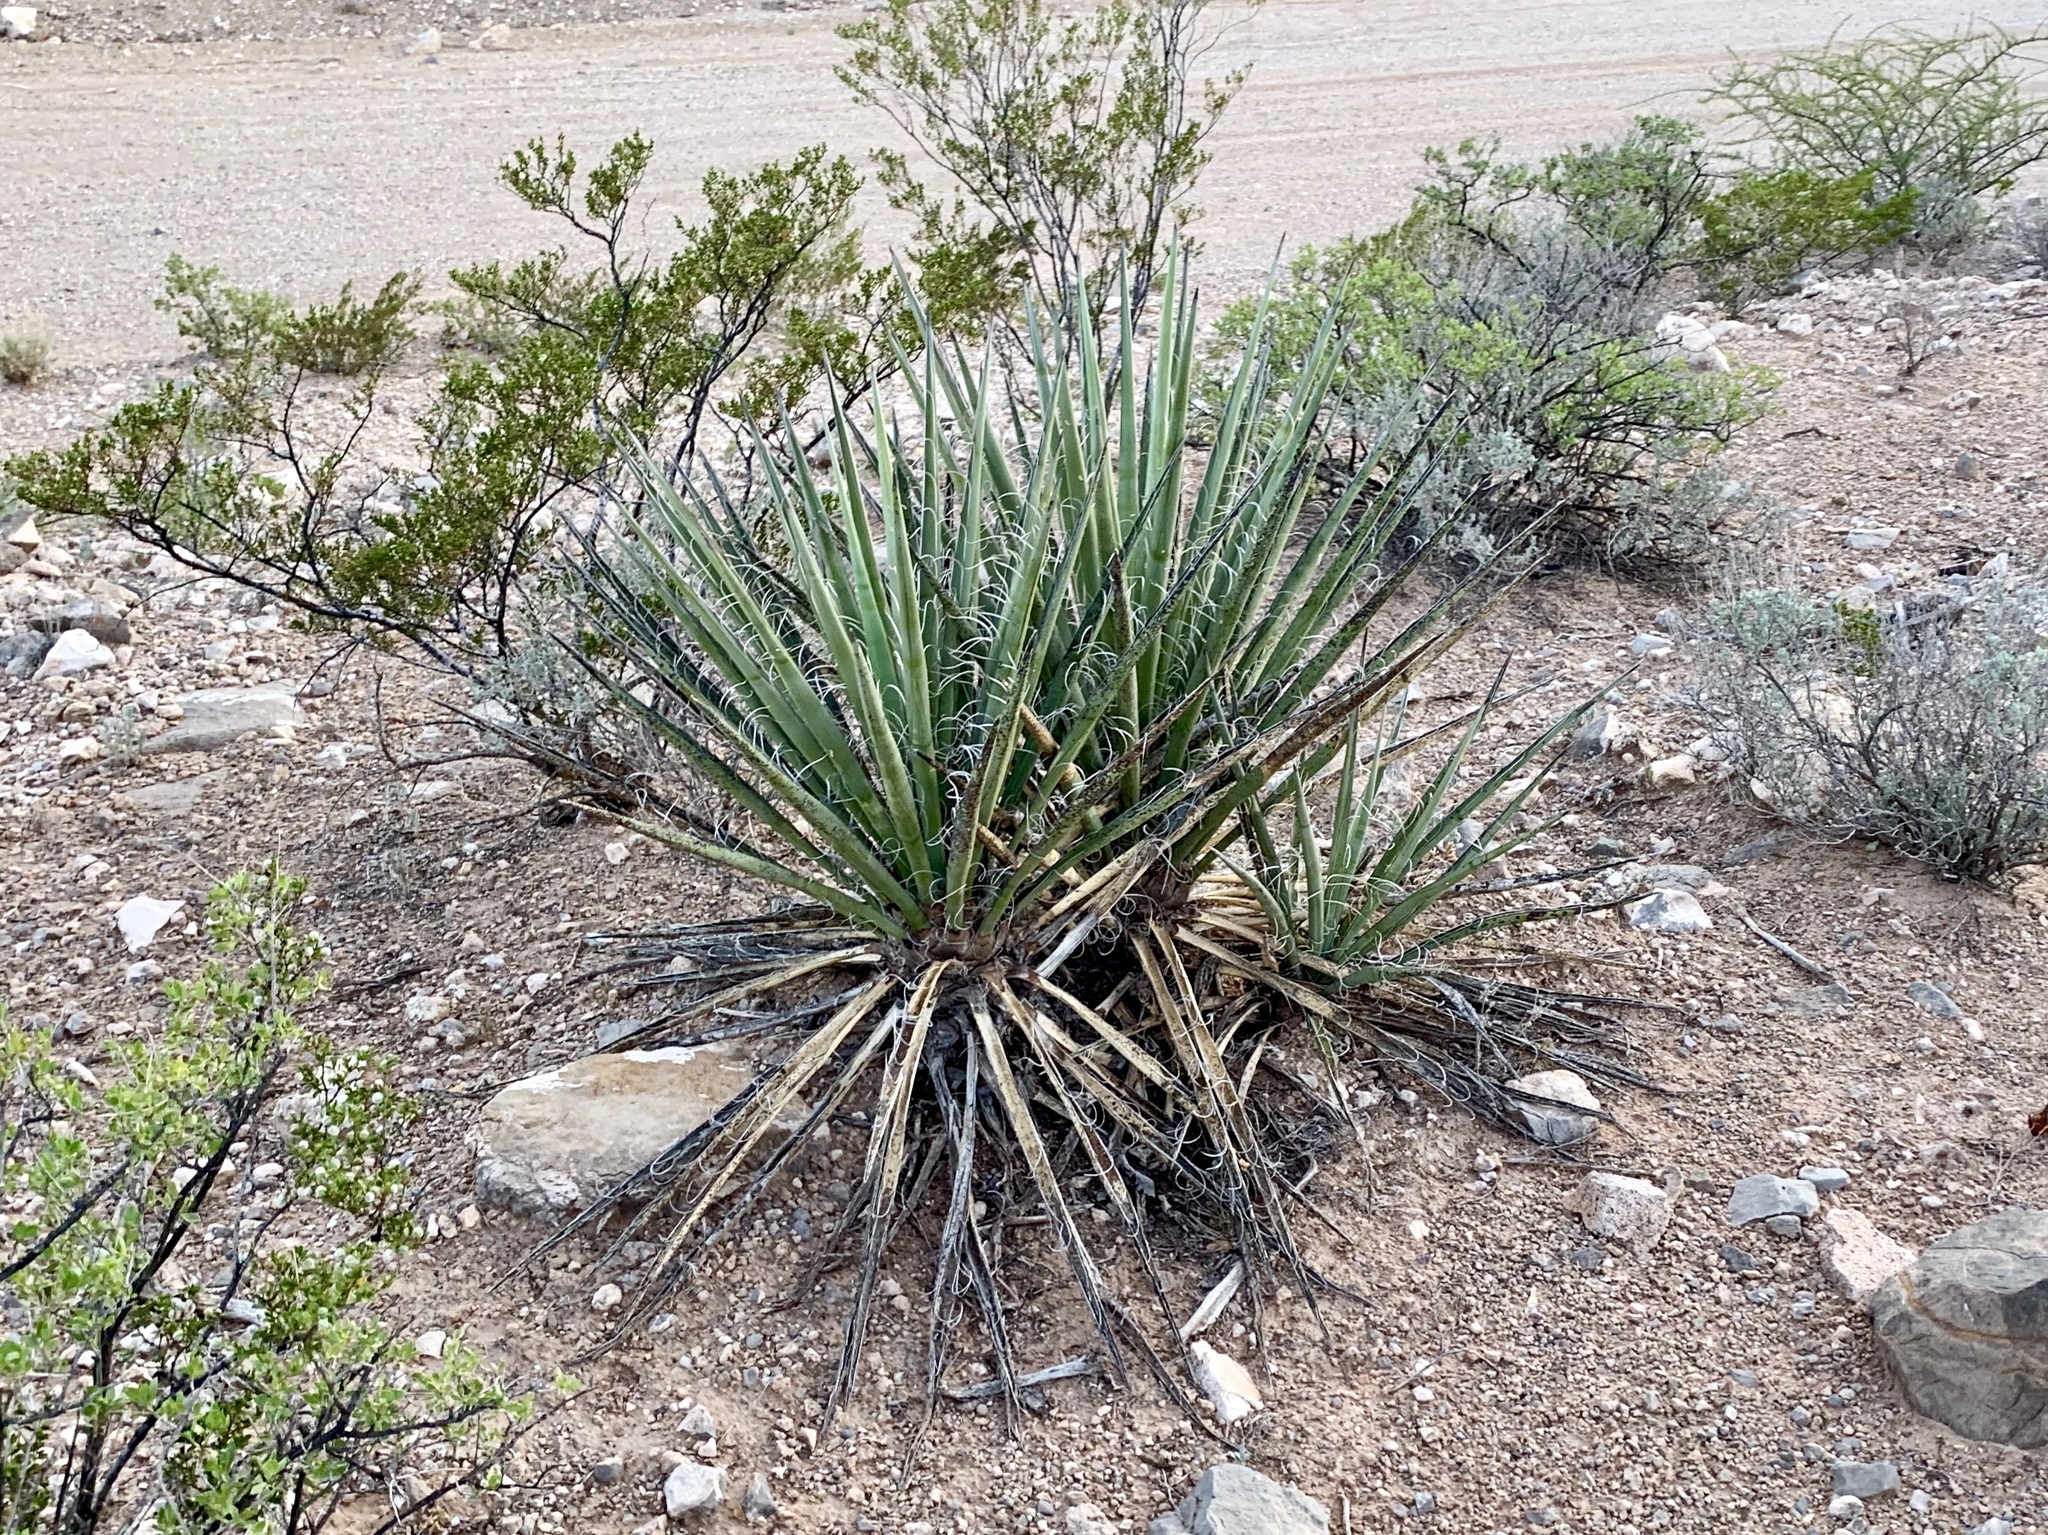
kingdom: Plantae
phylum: Tracheophyta
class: Liliopsida
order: Asparagales
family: Asparagaceae
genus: Yucca
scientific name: Yucca baccata
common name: Banana yucca
